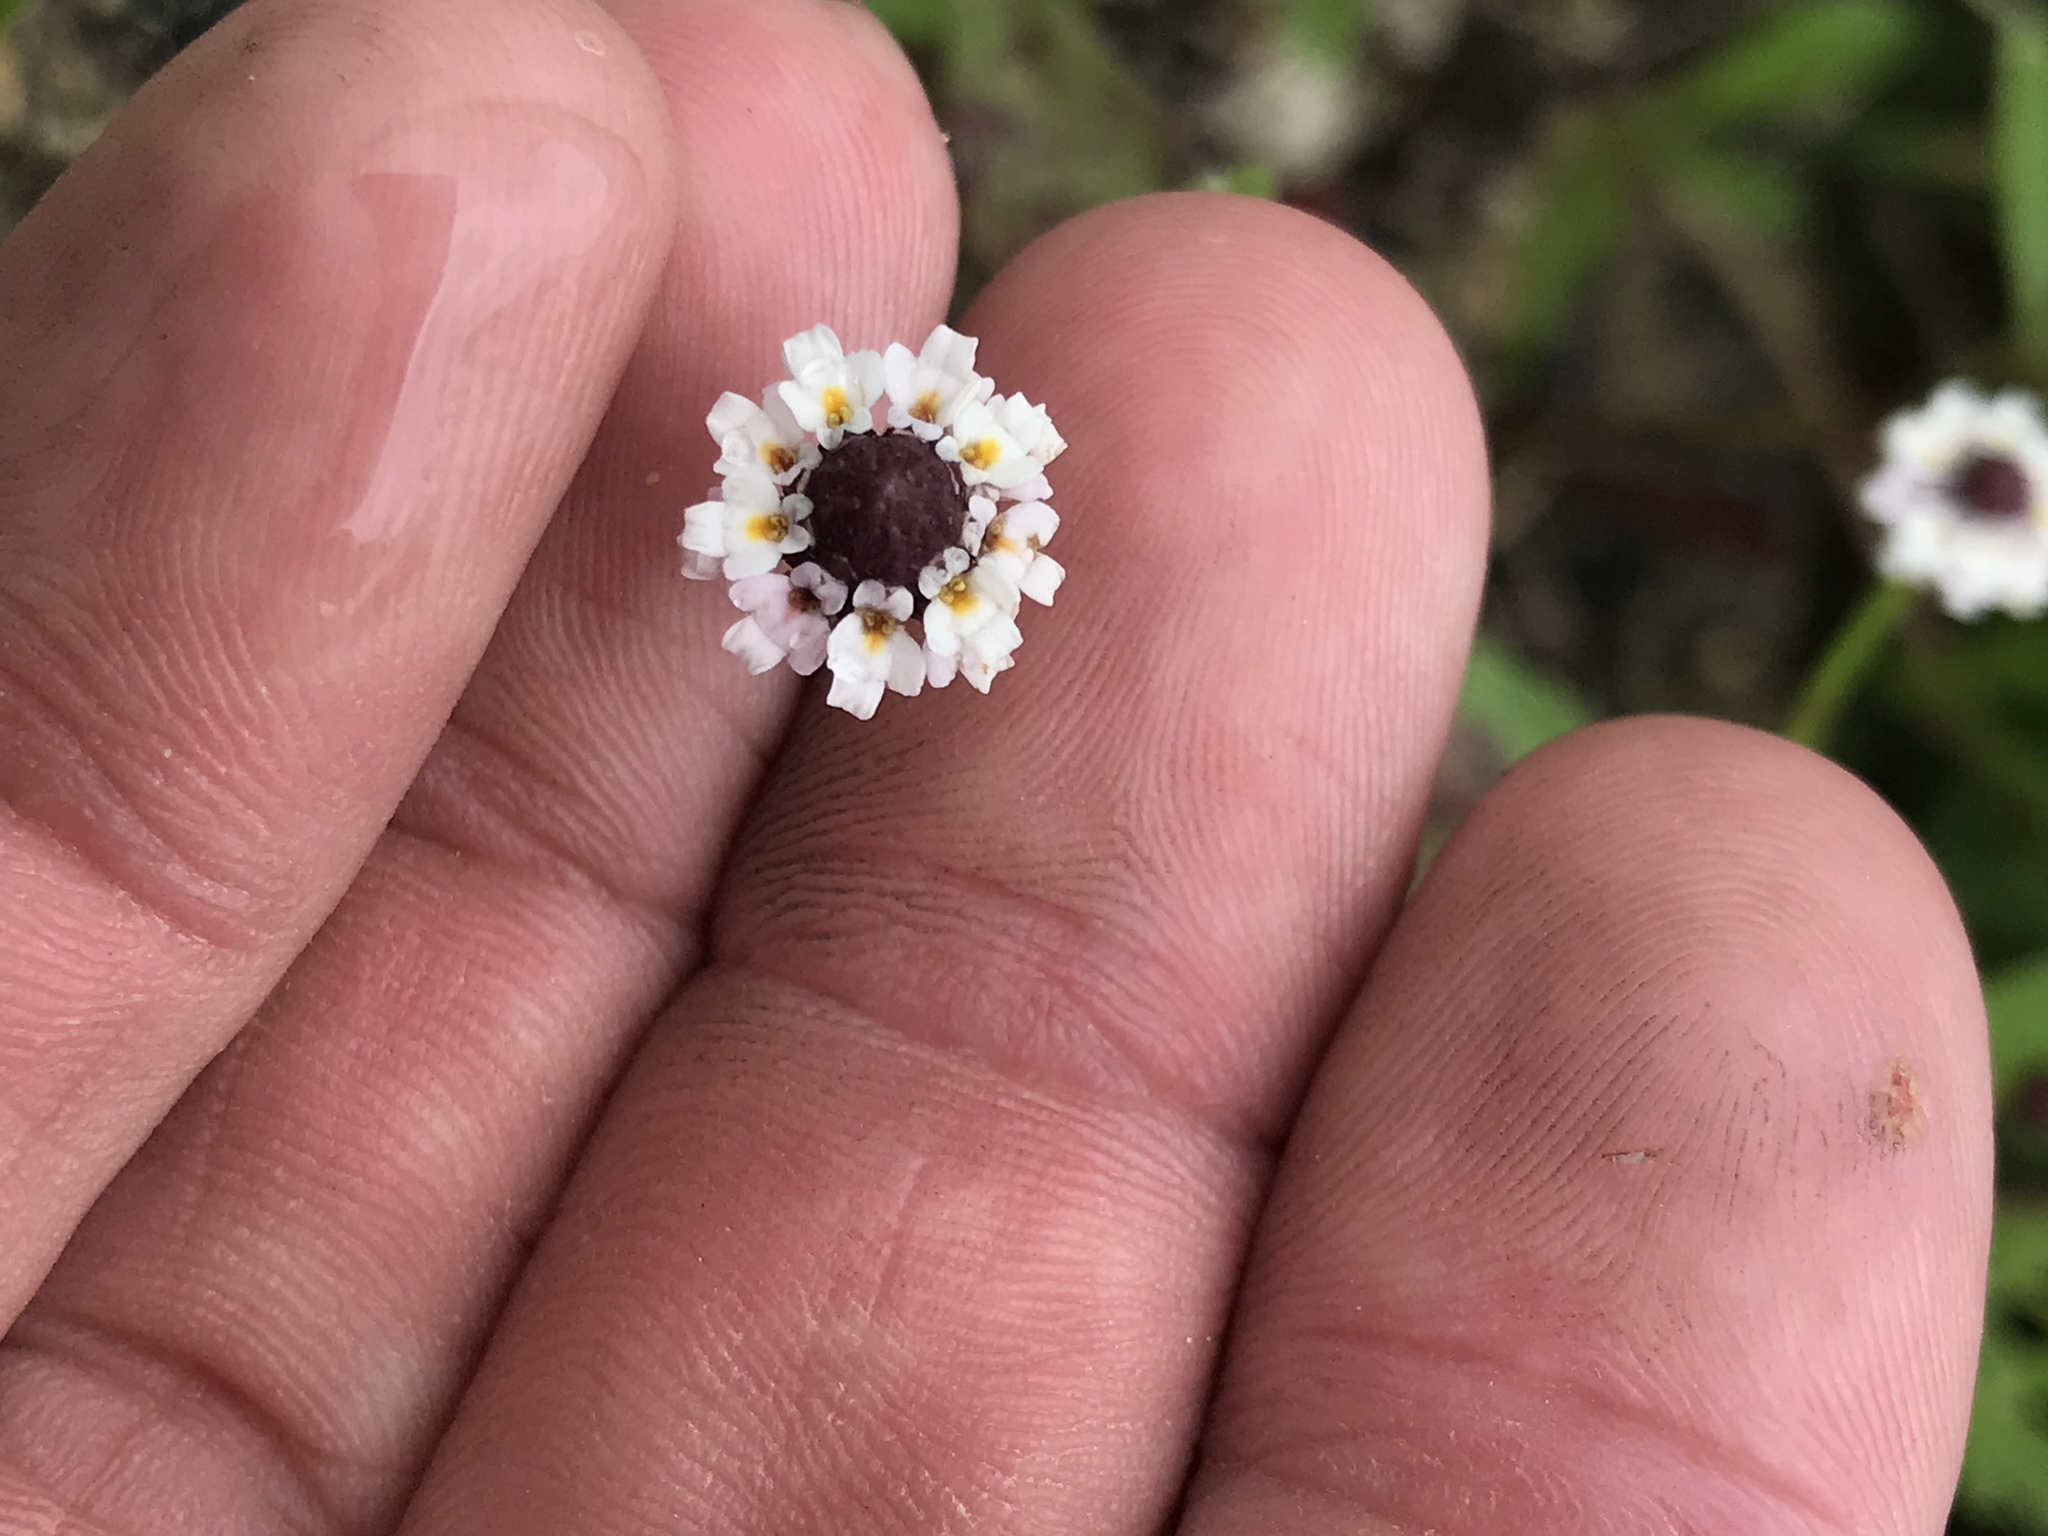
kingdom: Plantae
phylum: Tracheophyta
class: Magnoliopsida
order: Lamiales
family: Verbenaceae
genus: Phyla
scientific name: Phyla nodiflora
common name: Frogfruit
